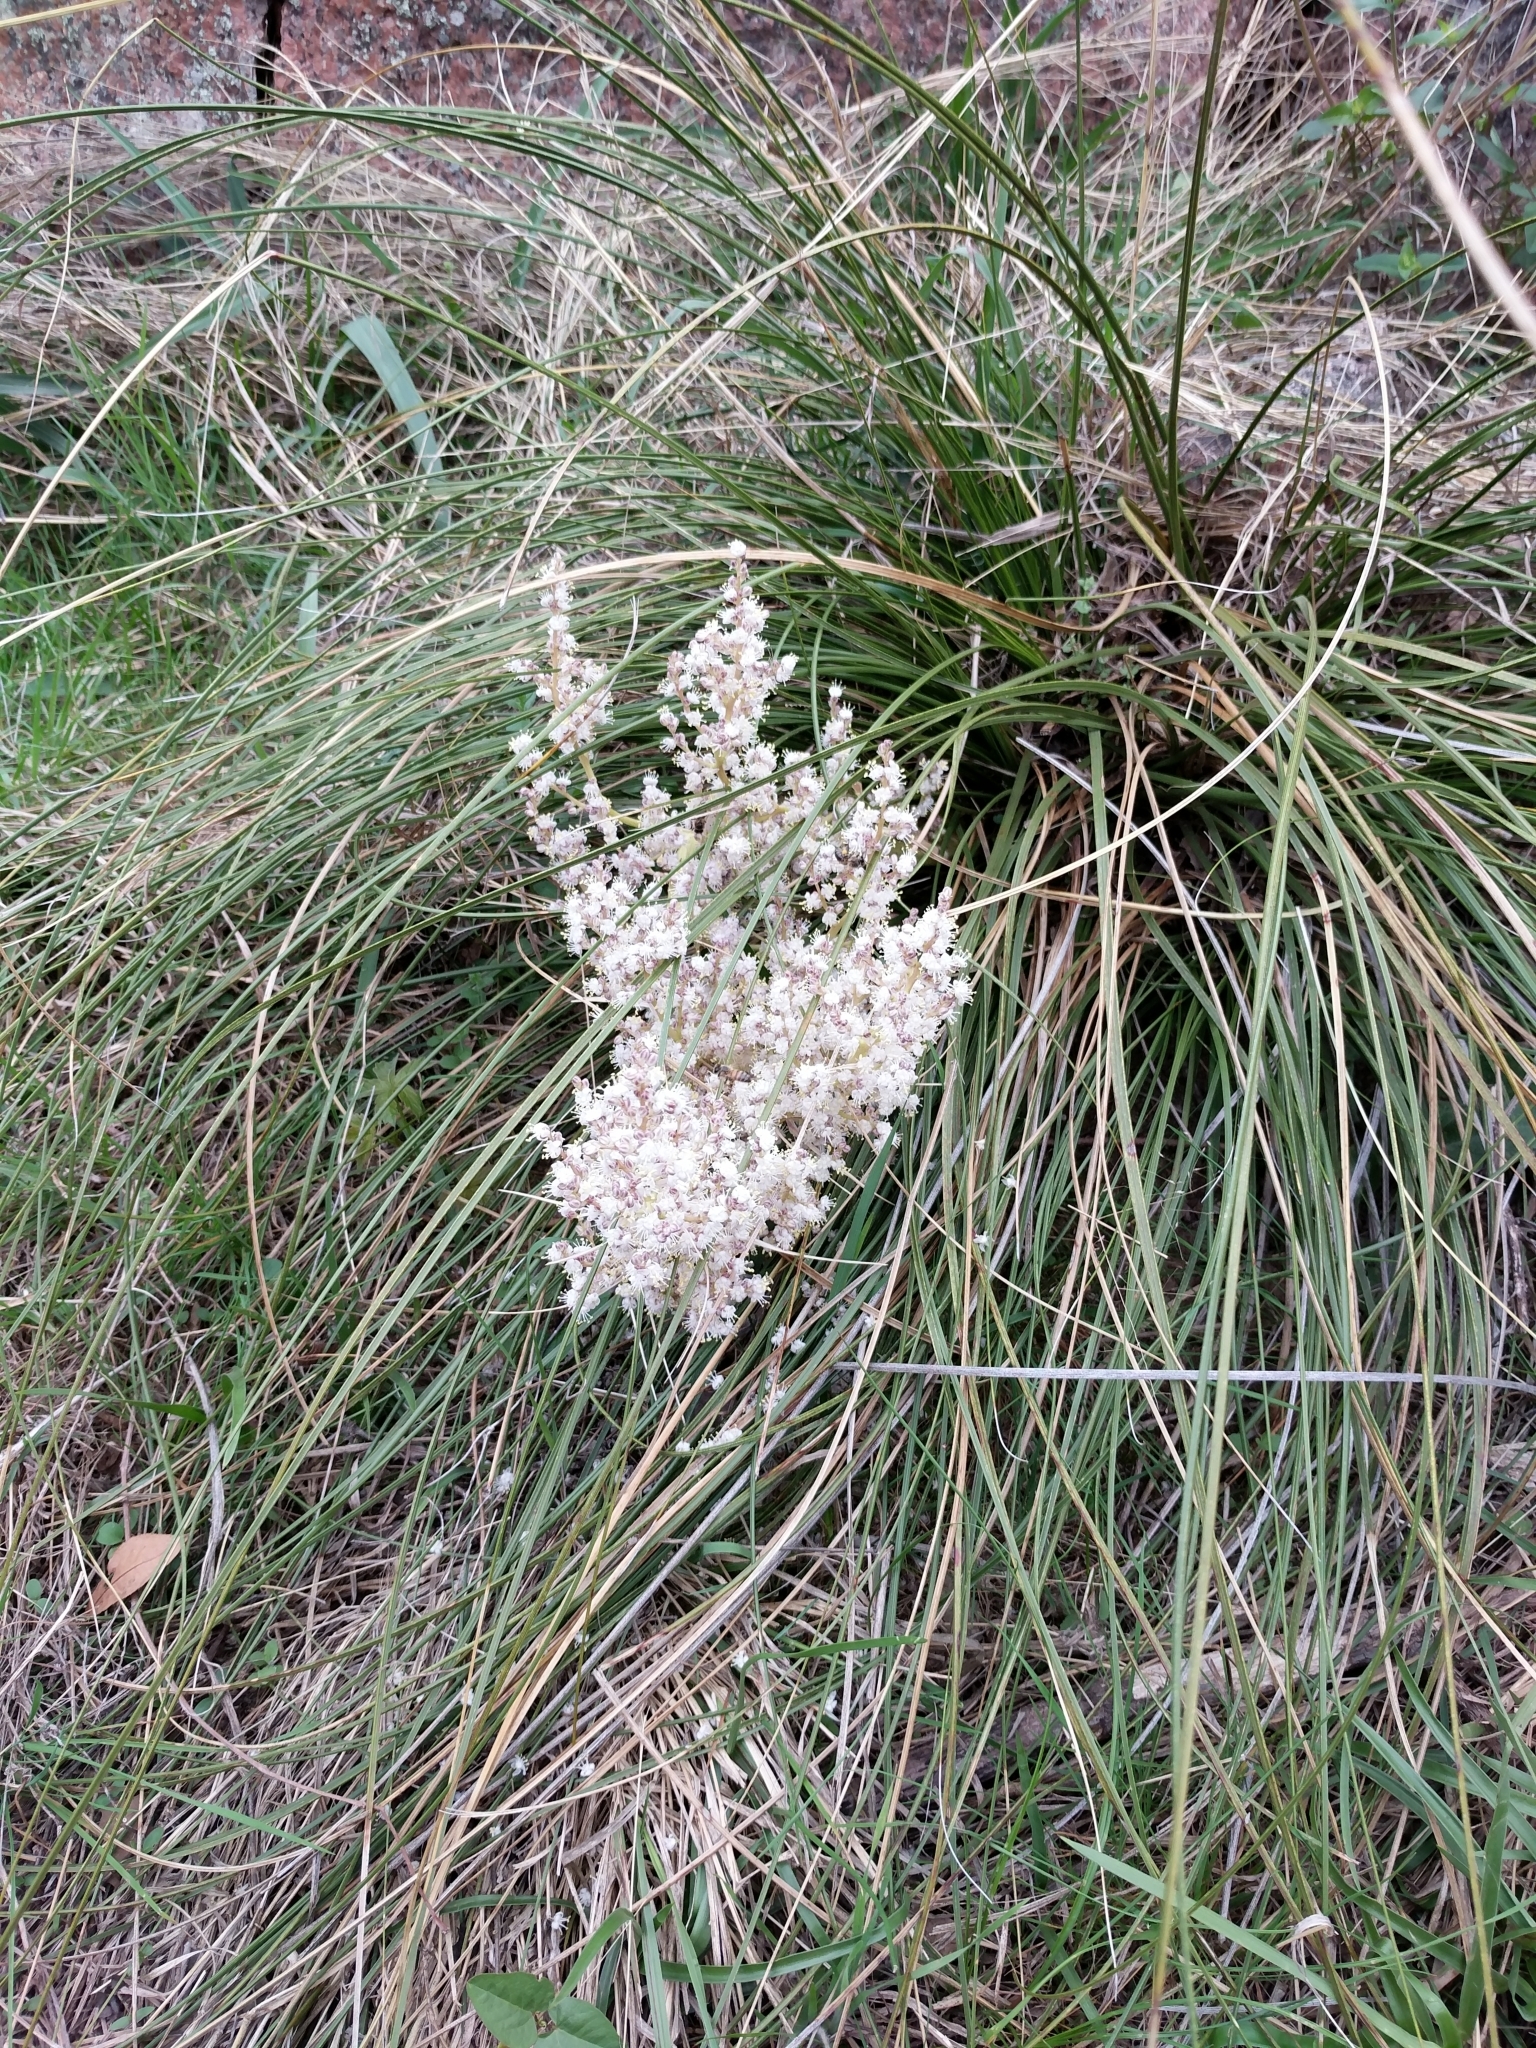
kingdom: Plantae
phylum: Tracheophyta
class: Liliopsida
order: Asparagales
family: Asparagaceae
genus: Nolina
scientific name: Nolina texana
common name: Texas sacahuiste
